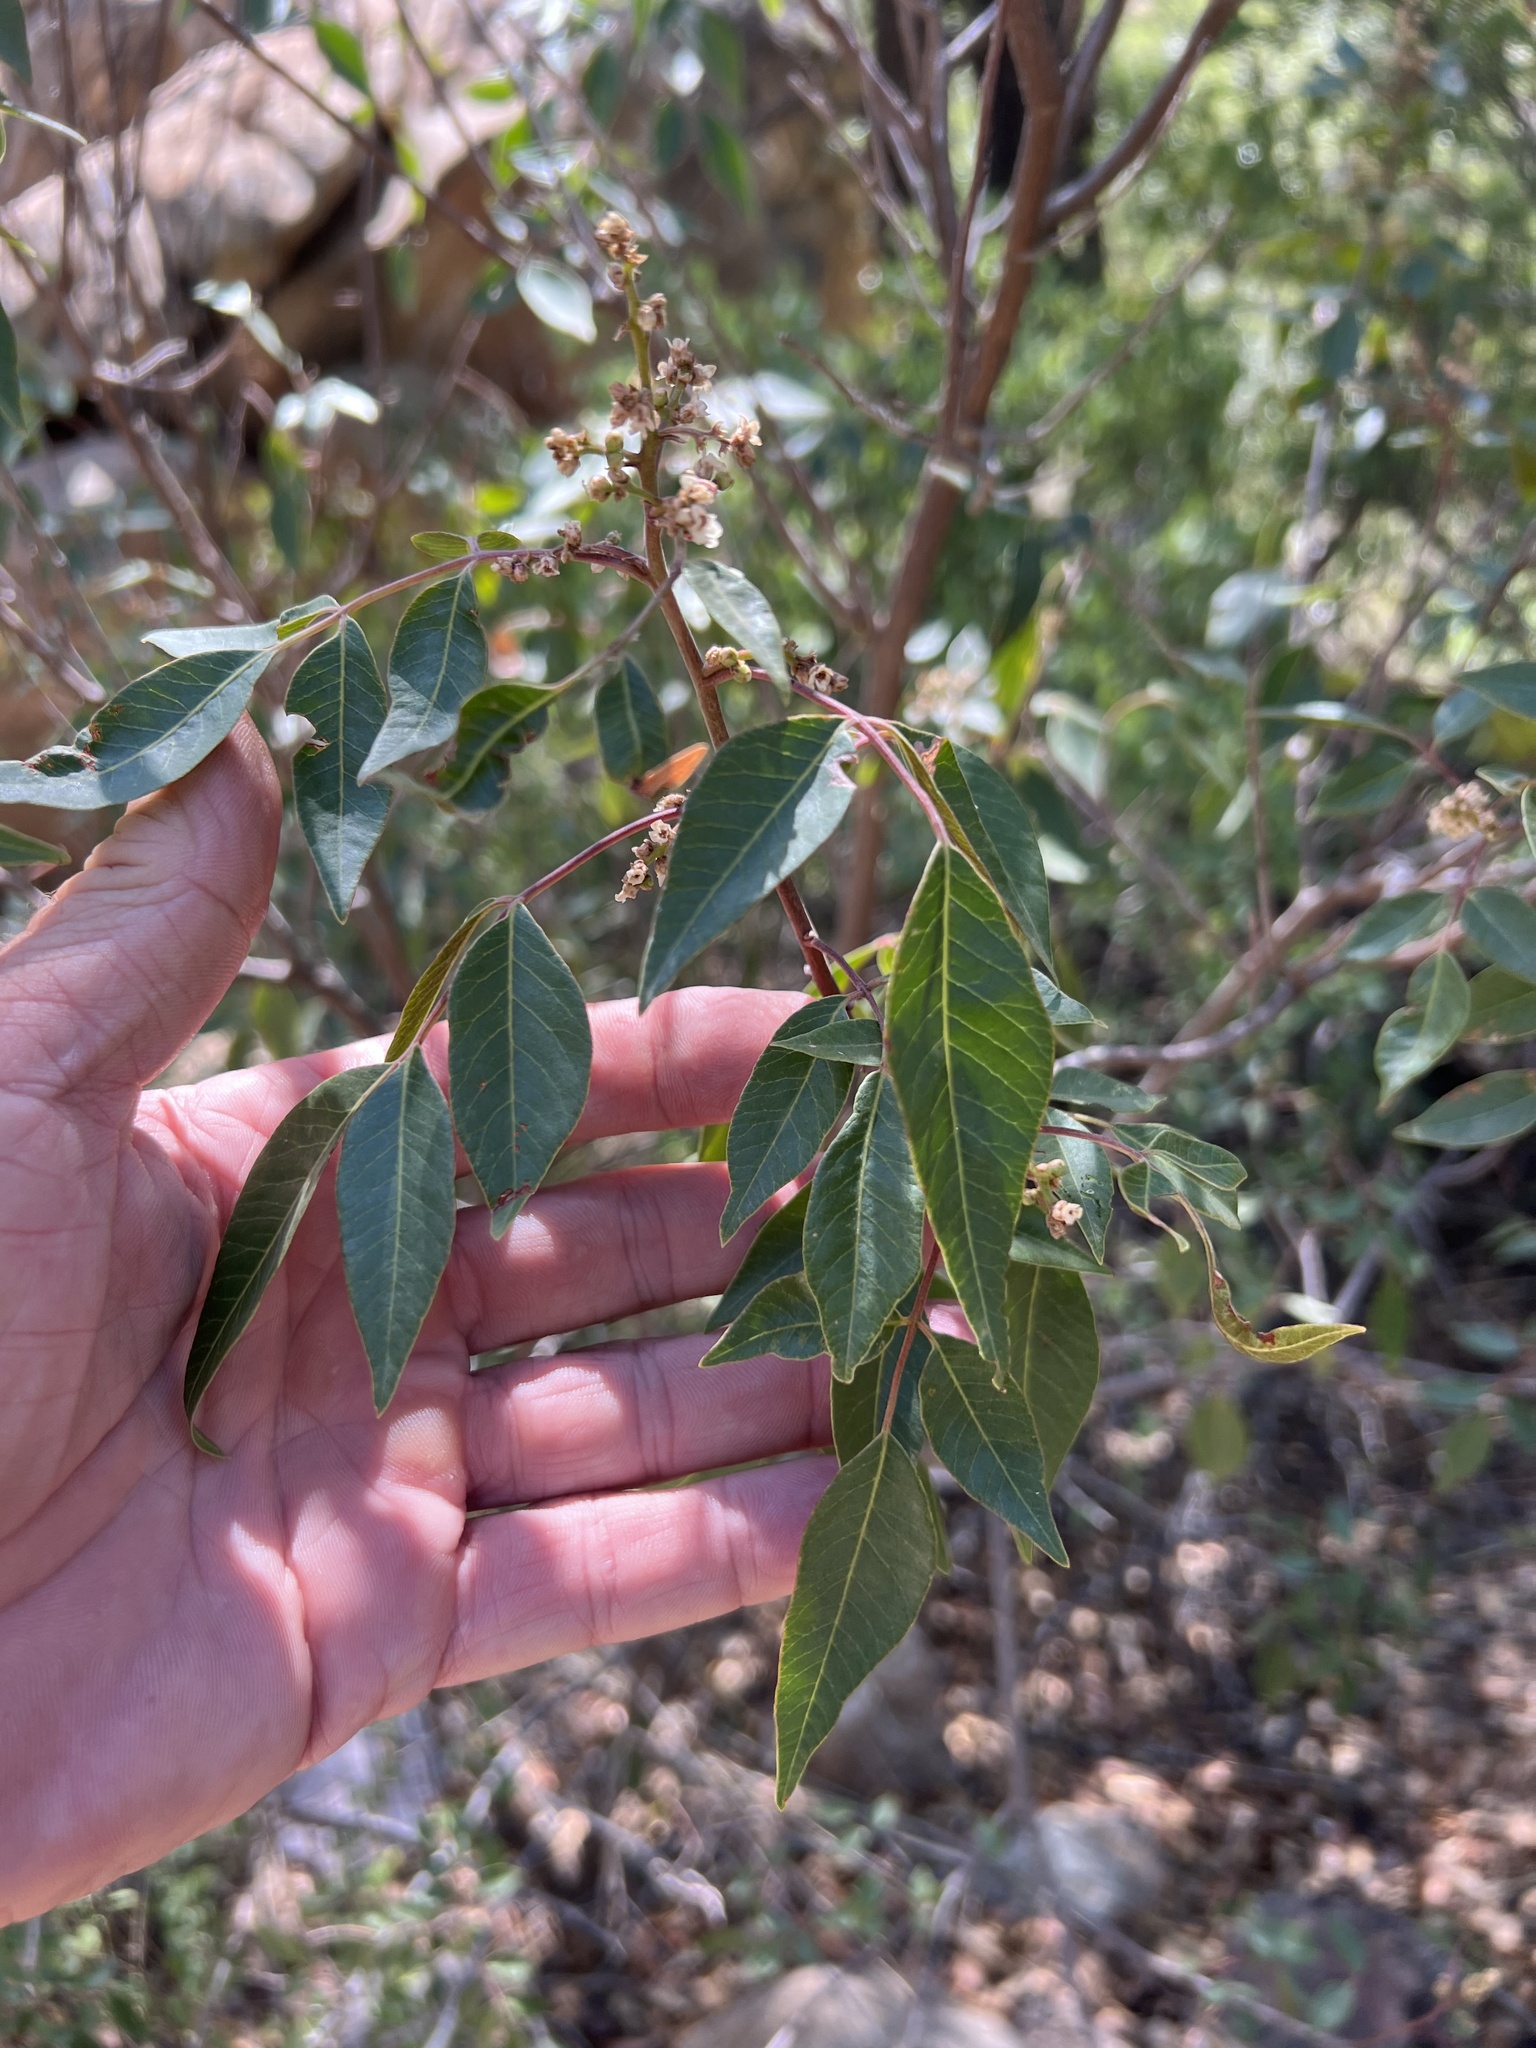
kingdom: Plantae
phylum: Tracheophyta
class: Magnoliopsida
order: Sapindales
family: Anacardiaceae
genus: Rhus
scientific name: Rhus virens
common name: Evergreen sumac
